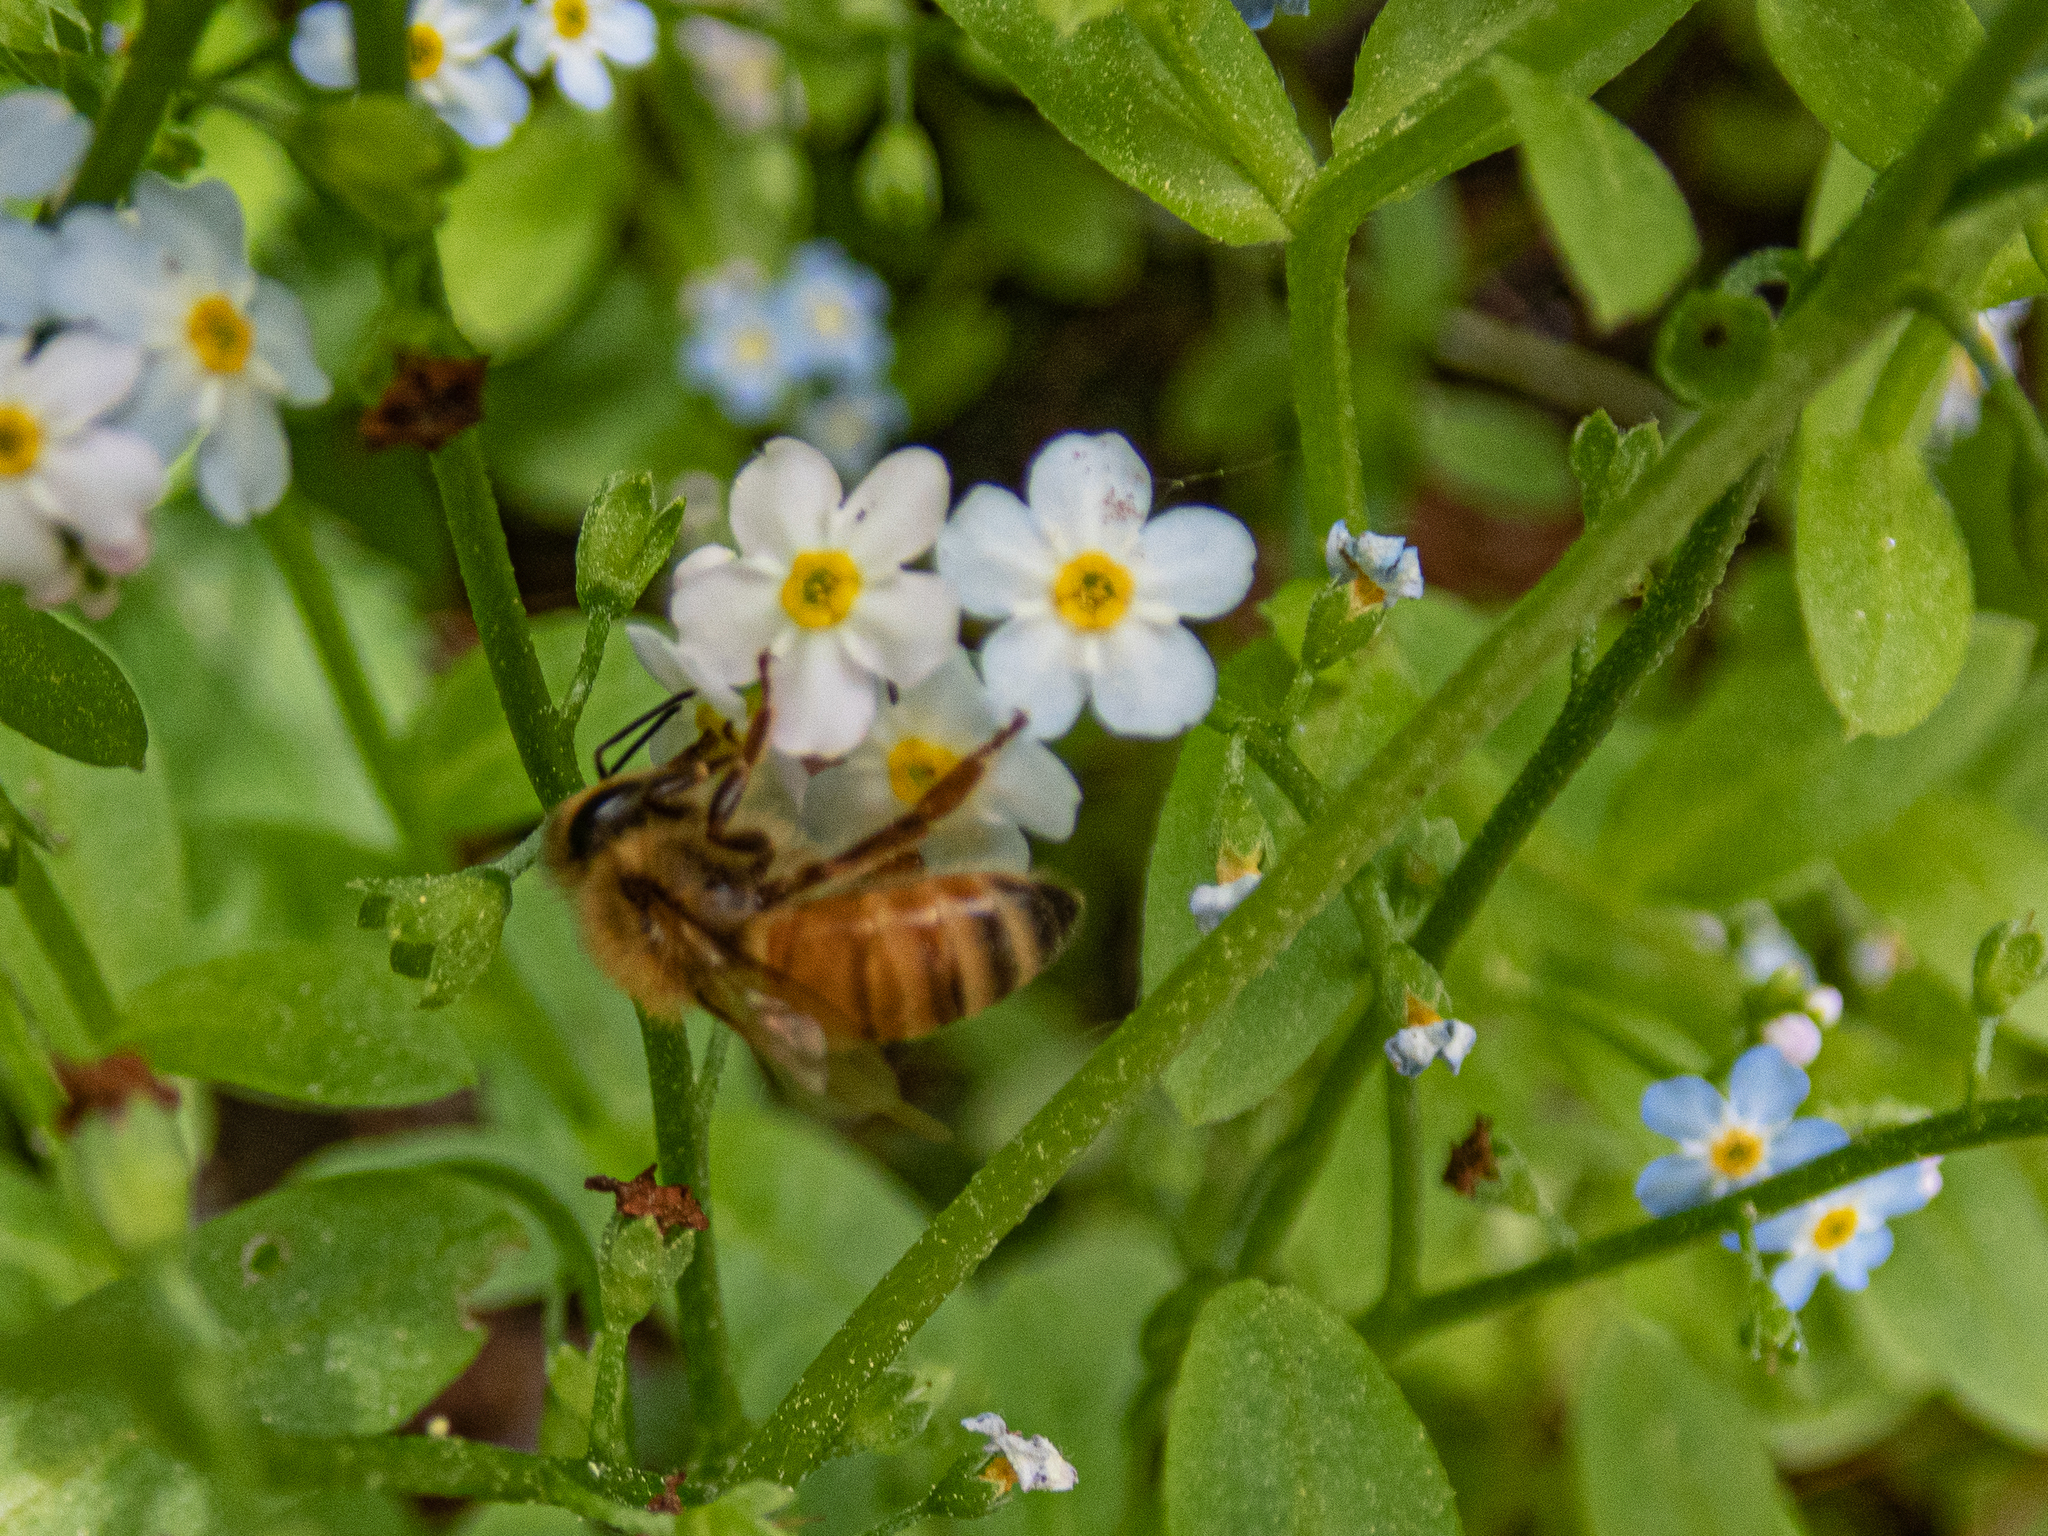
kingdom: Animalia
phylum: Arthropoda
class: Insecta
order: Hymenoptera
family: Apidae
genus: Apis
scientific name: Apis mellifera
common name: Honey bee
